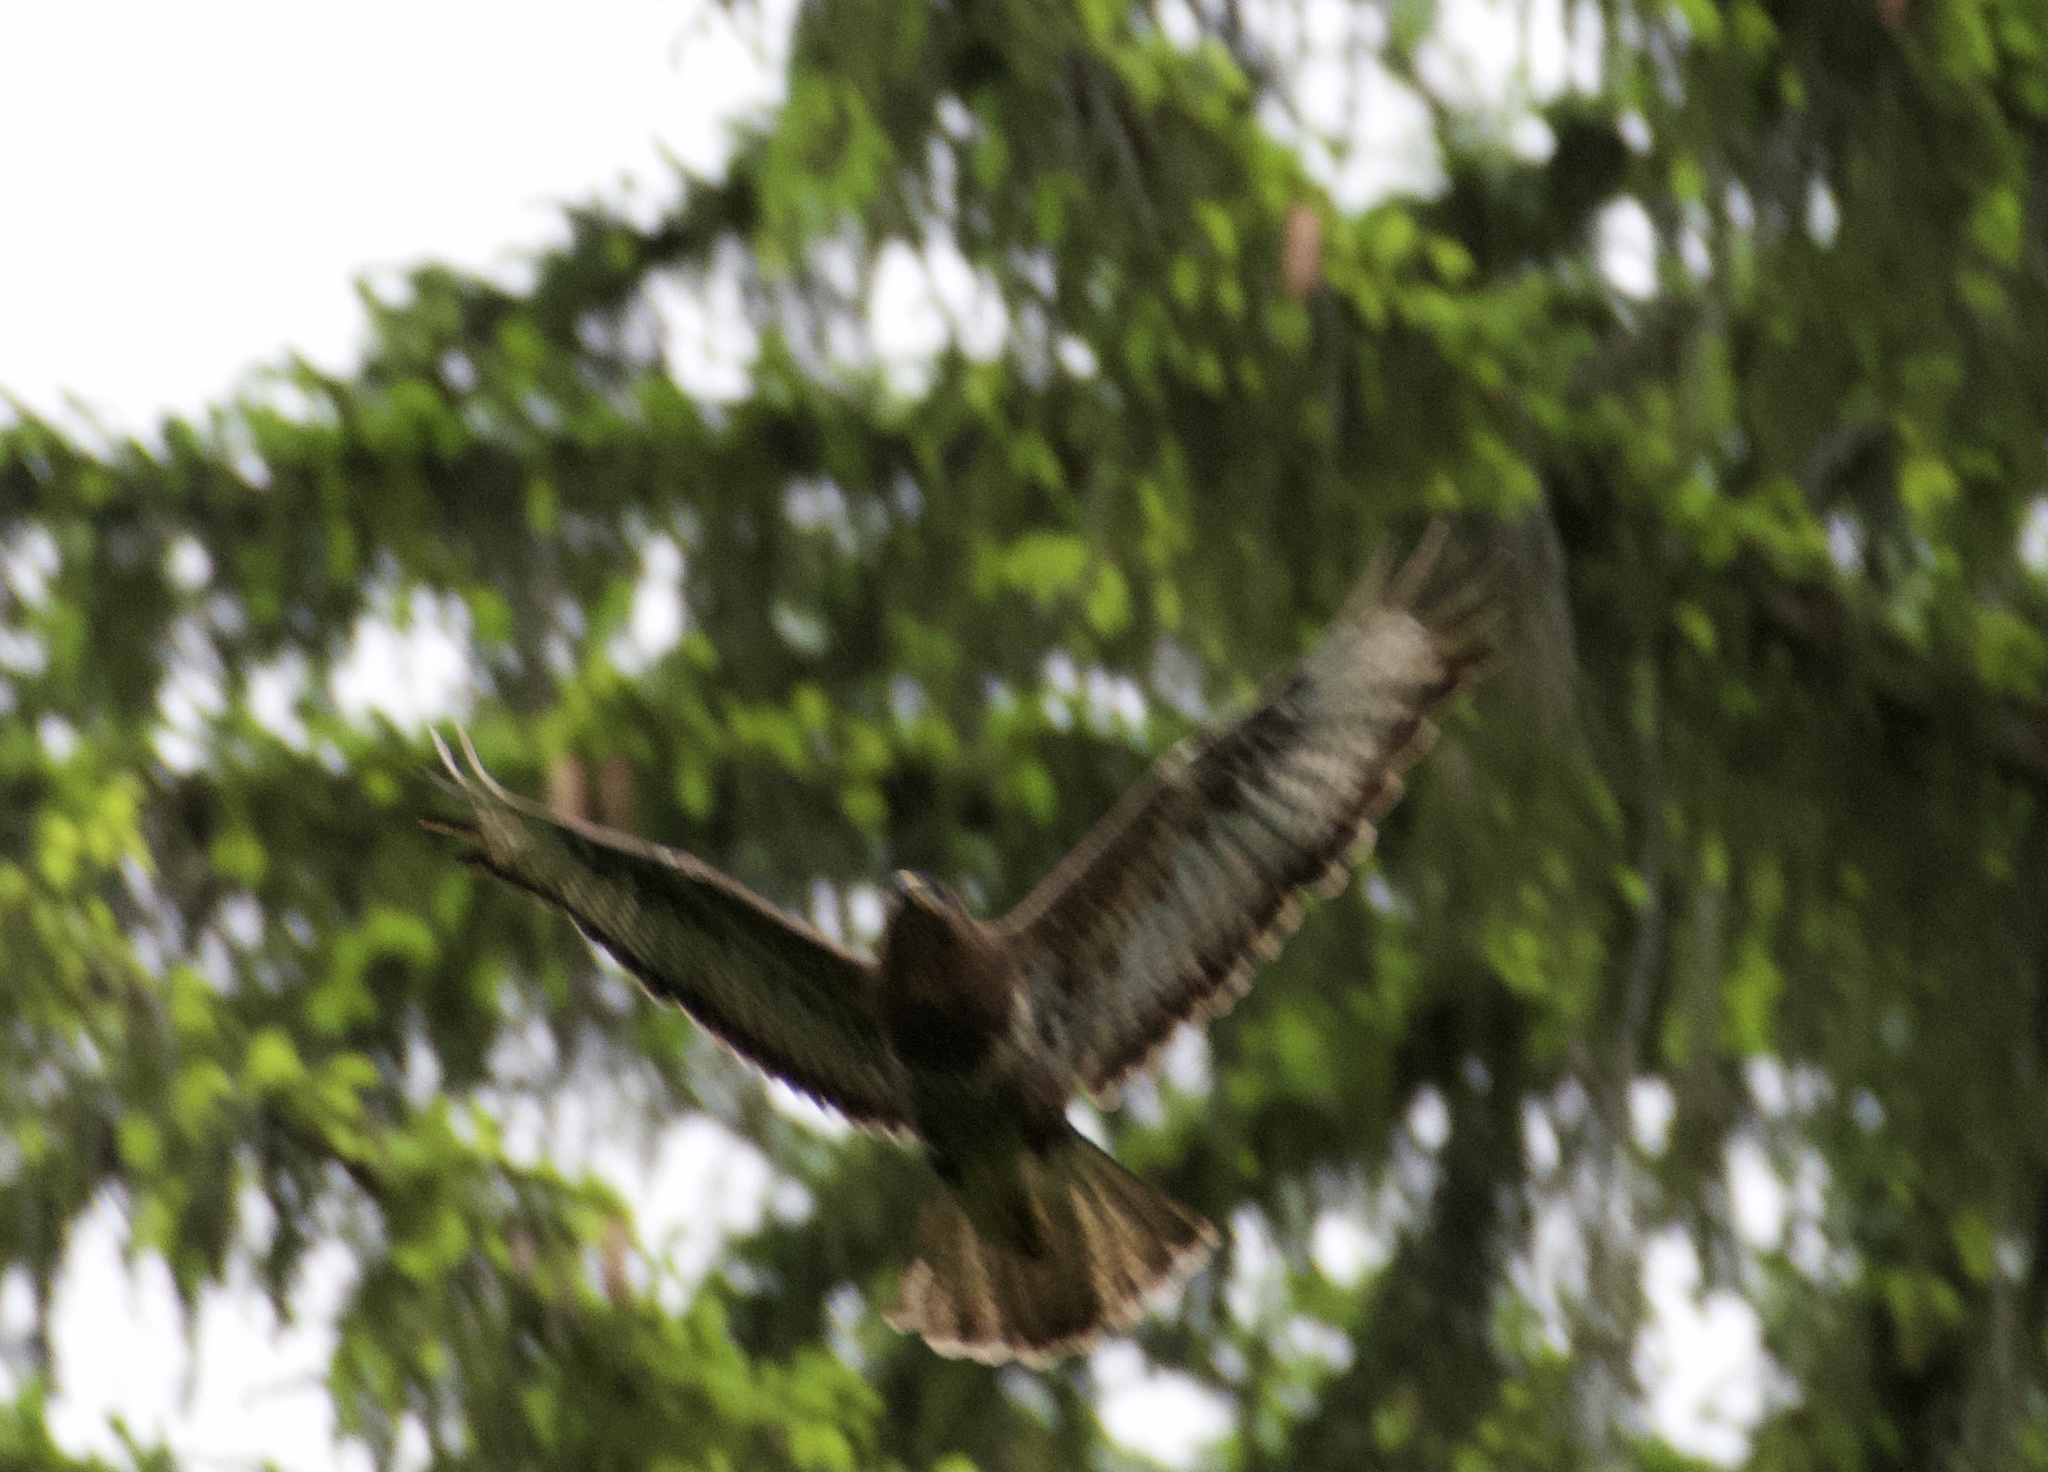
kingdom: Animalia
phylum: Chordata
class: Aves
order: Accipitriformes
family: Accipitridae
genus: Buteo
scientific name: Buteo buteo
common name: Common buzzard
